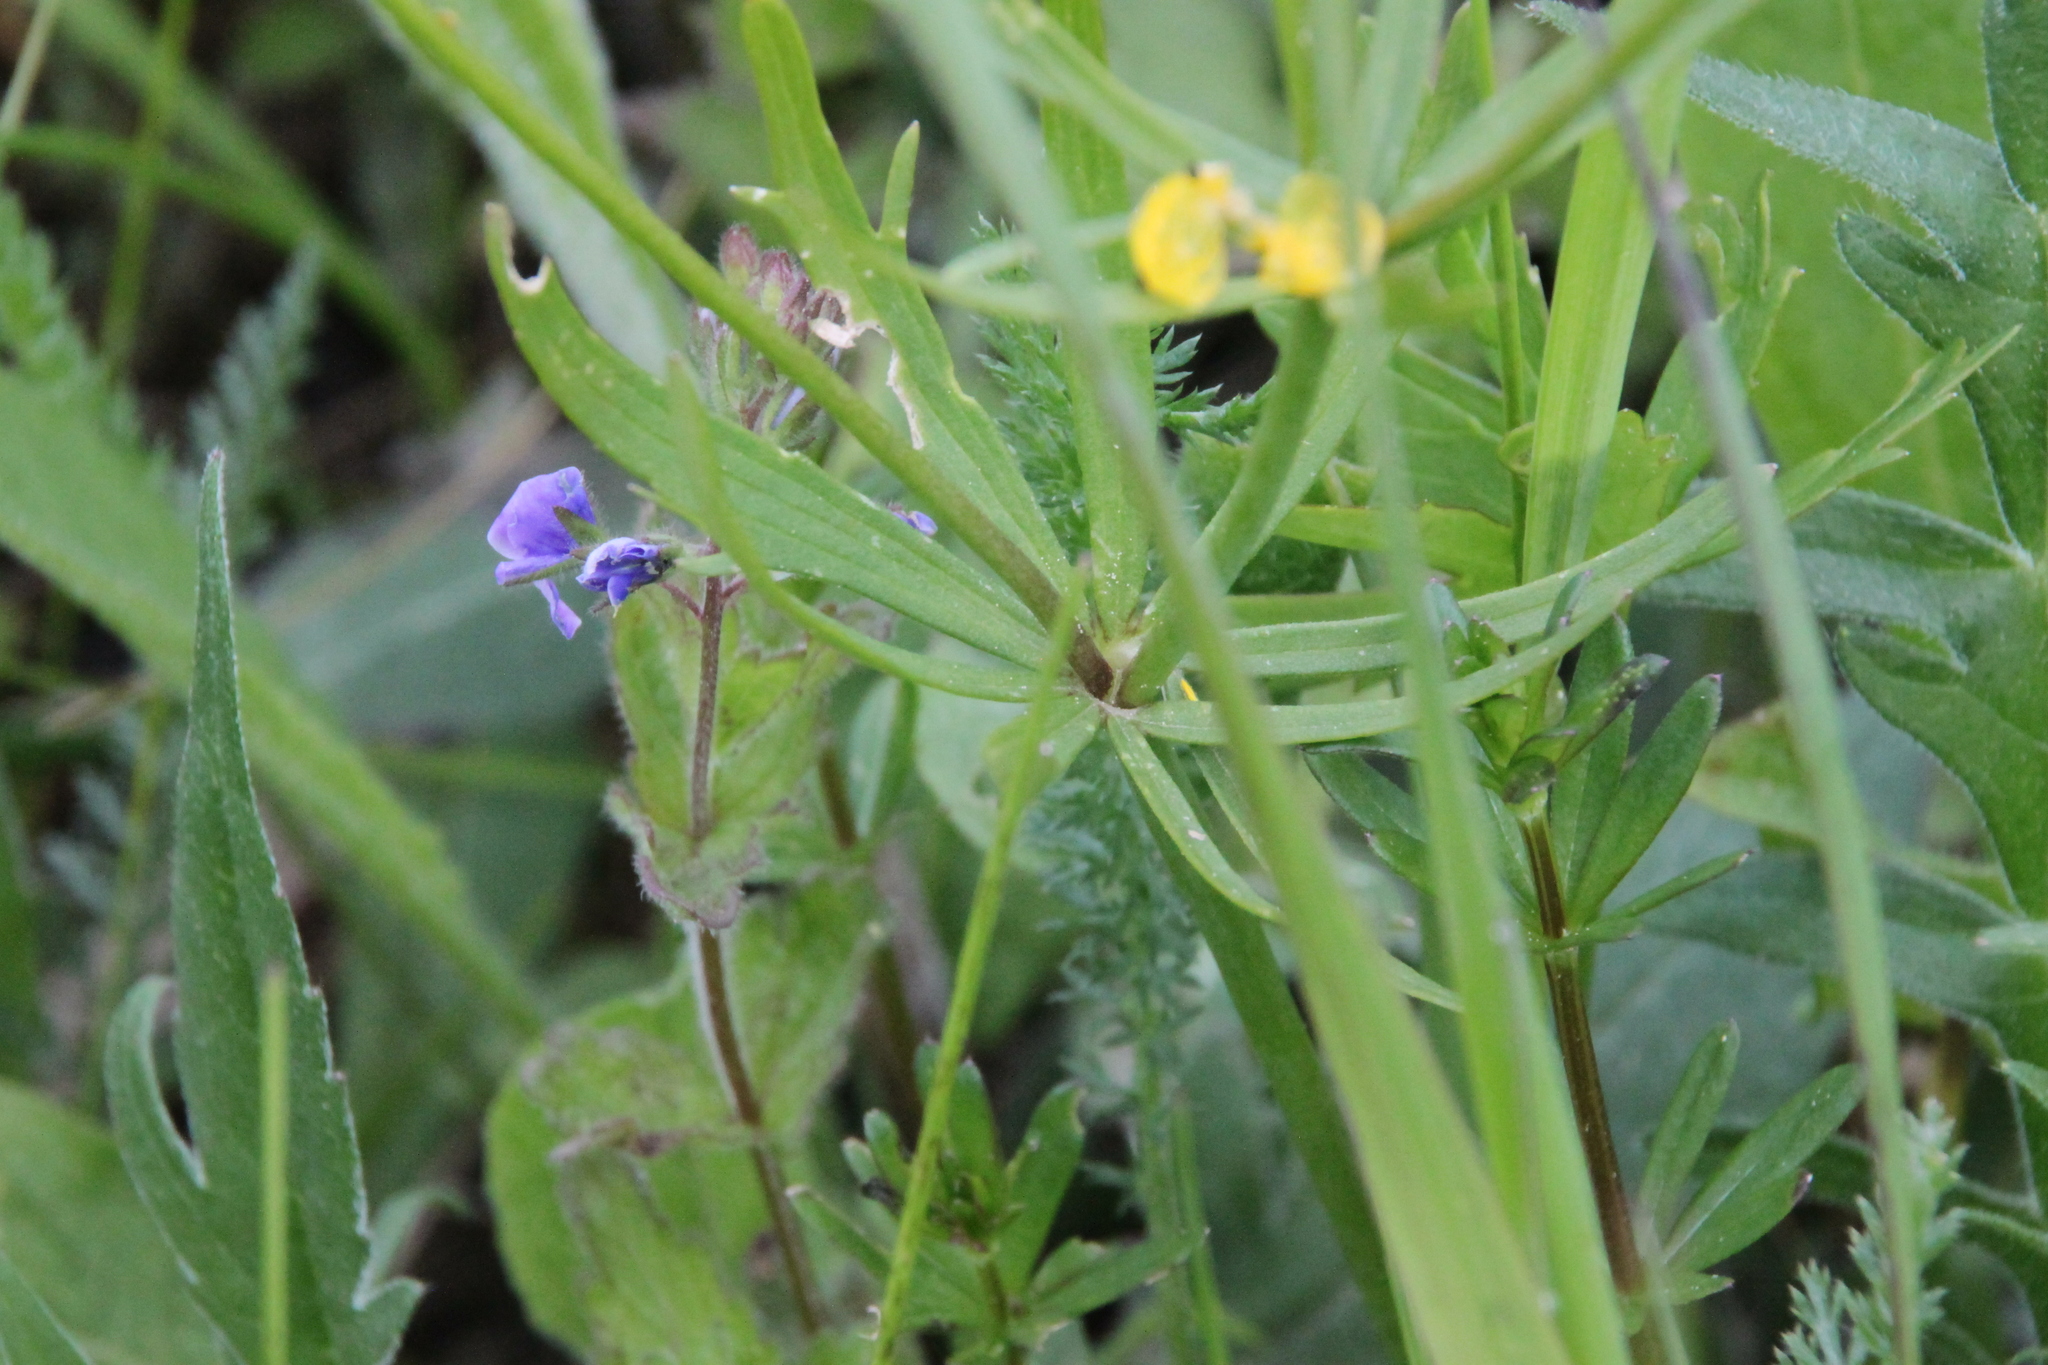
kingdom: Plantae
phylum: Tracheophyta
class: Magnoliopsida
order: Ranunculales
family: Ranunculaceae
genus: Ranunculus
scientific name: Ranunculus auricomus
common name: Goldilocks buttercup
